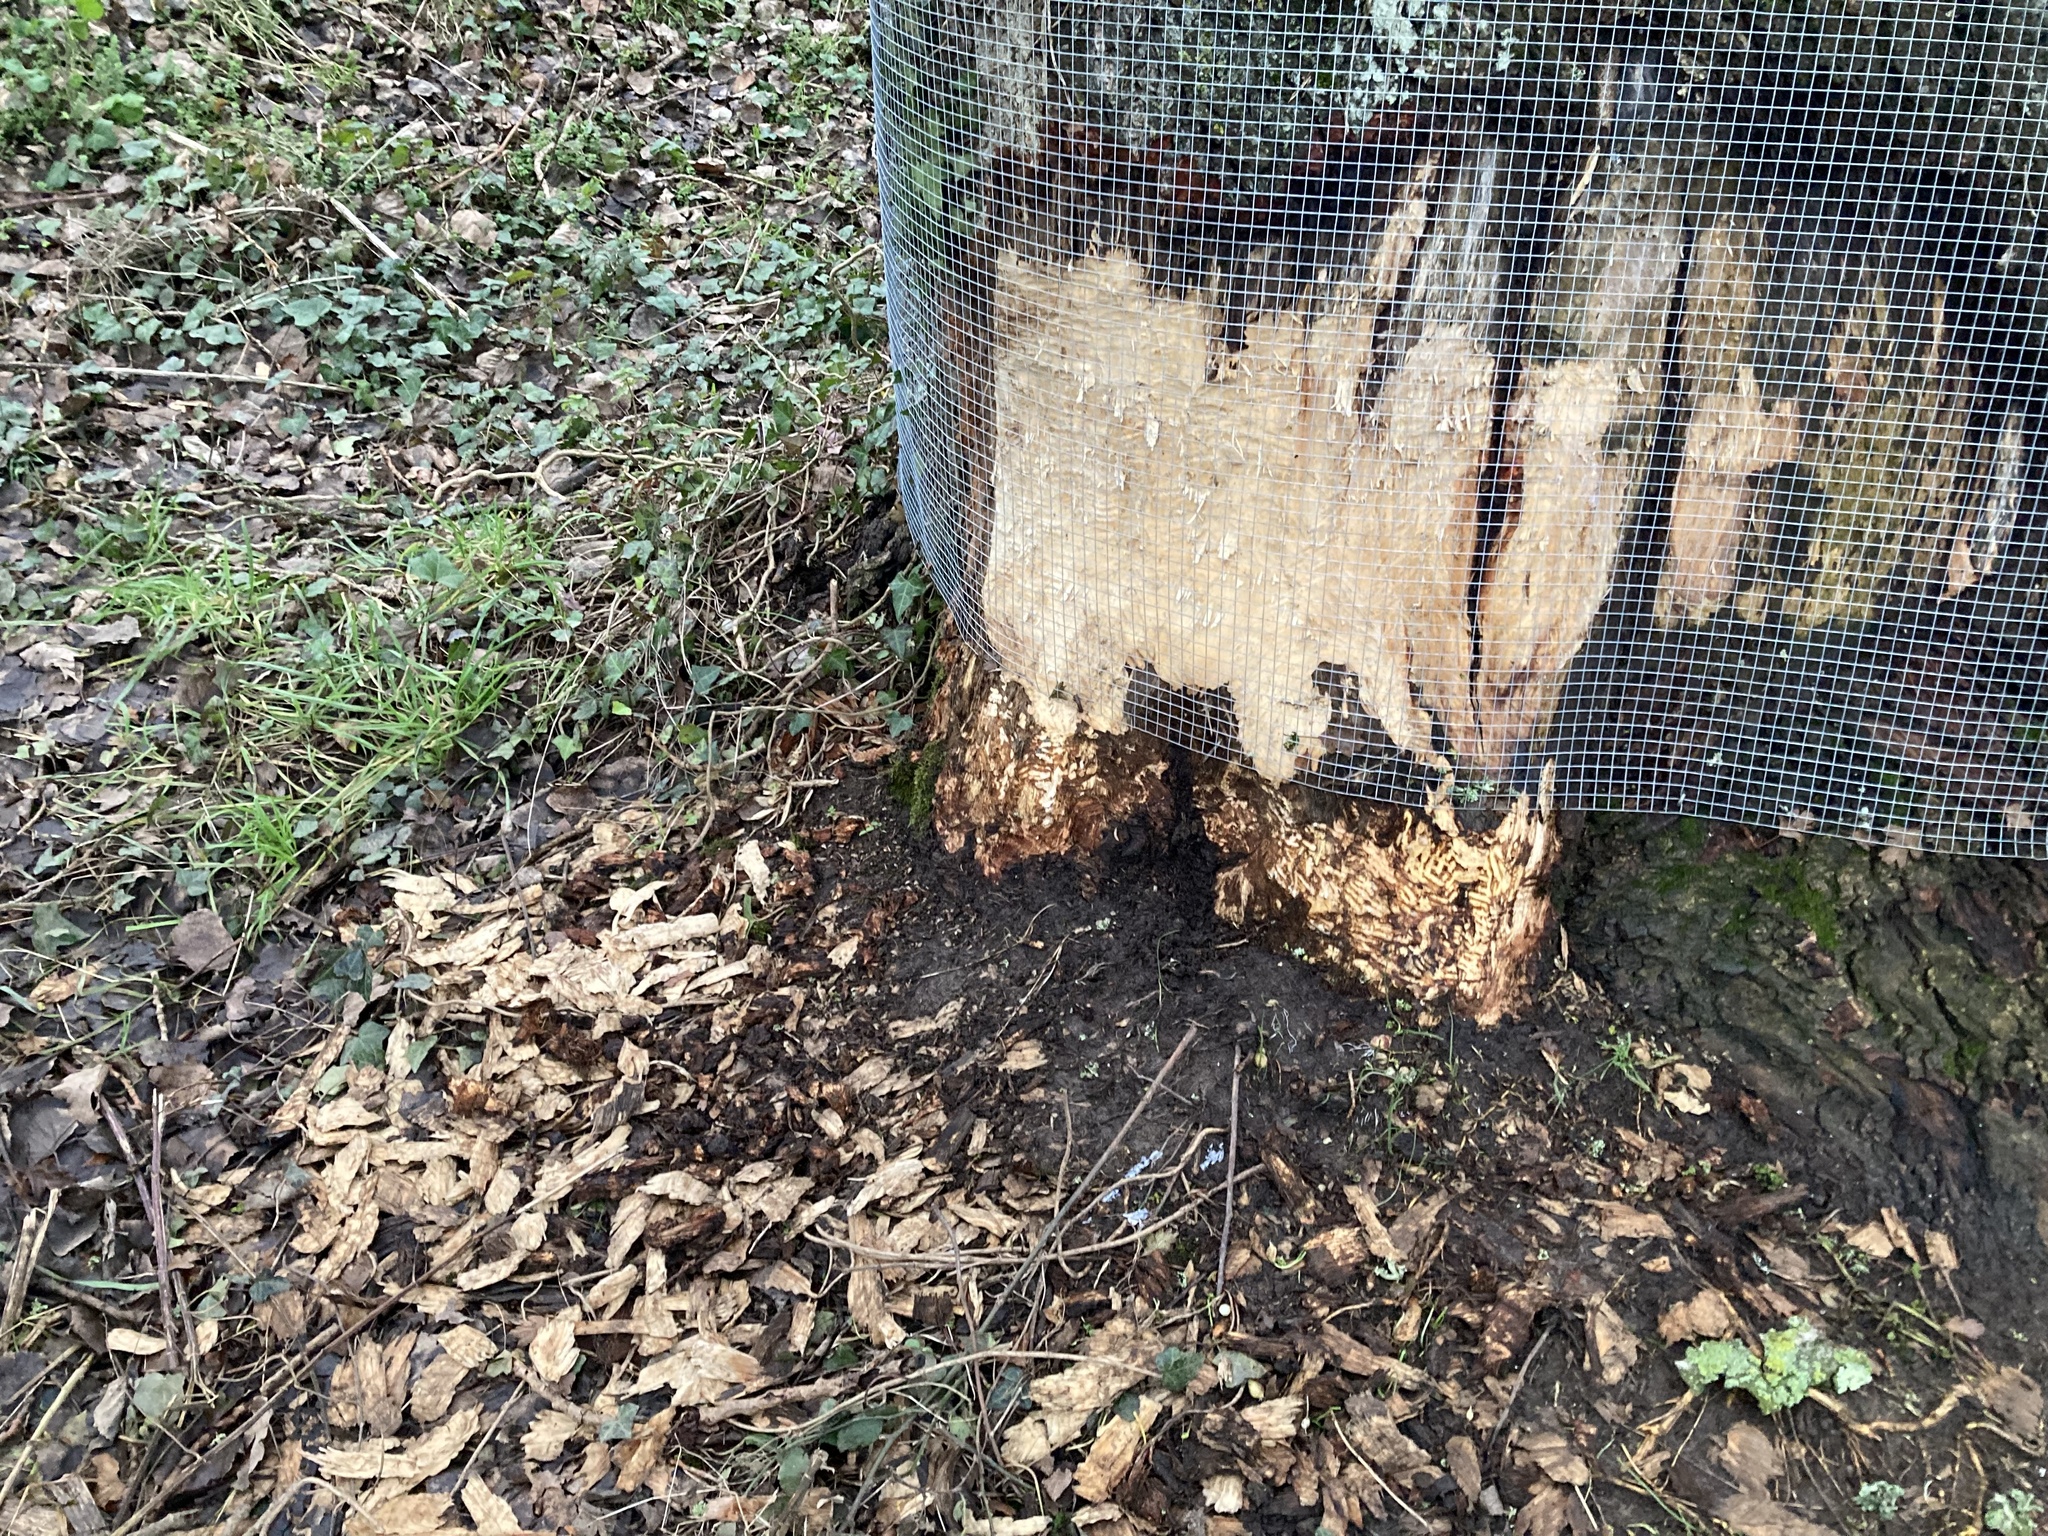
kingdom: Animalia
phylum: Chordata
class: Mammalia
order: Rodentia
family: Castoridae
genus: Castor
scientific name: Castor fiber
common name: Eurasian beaver
